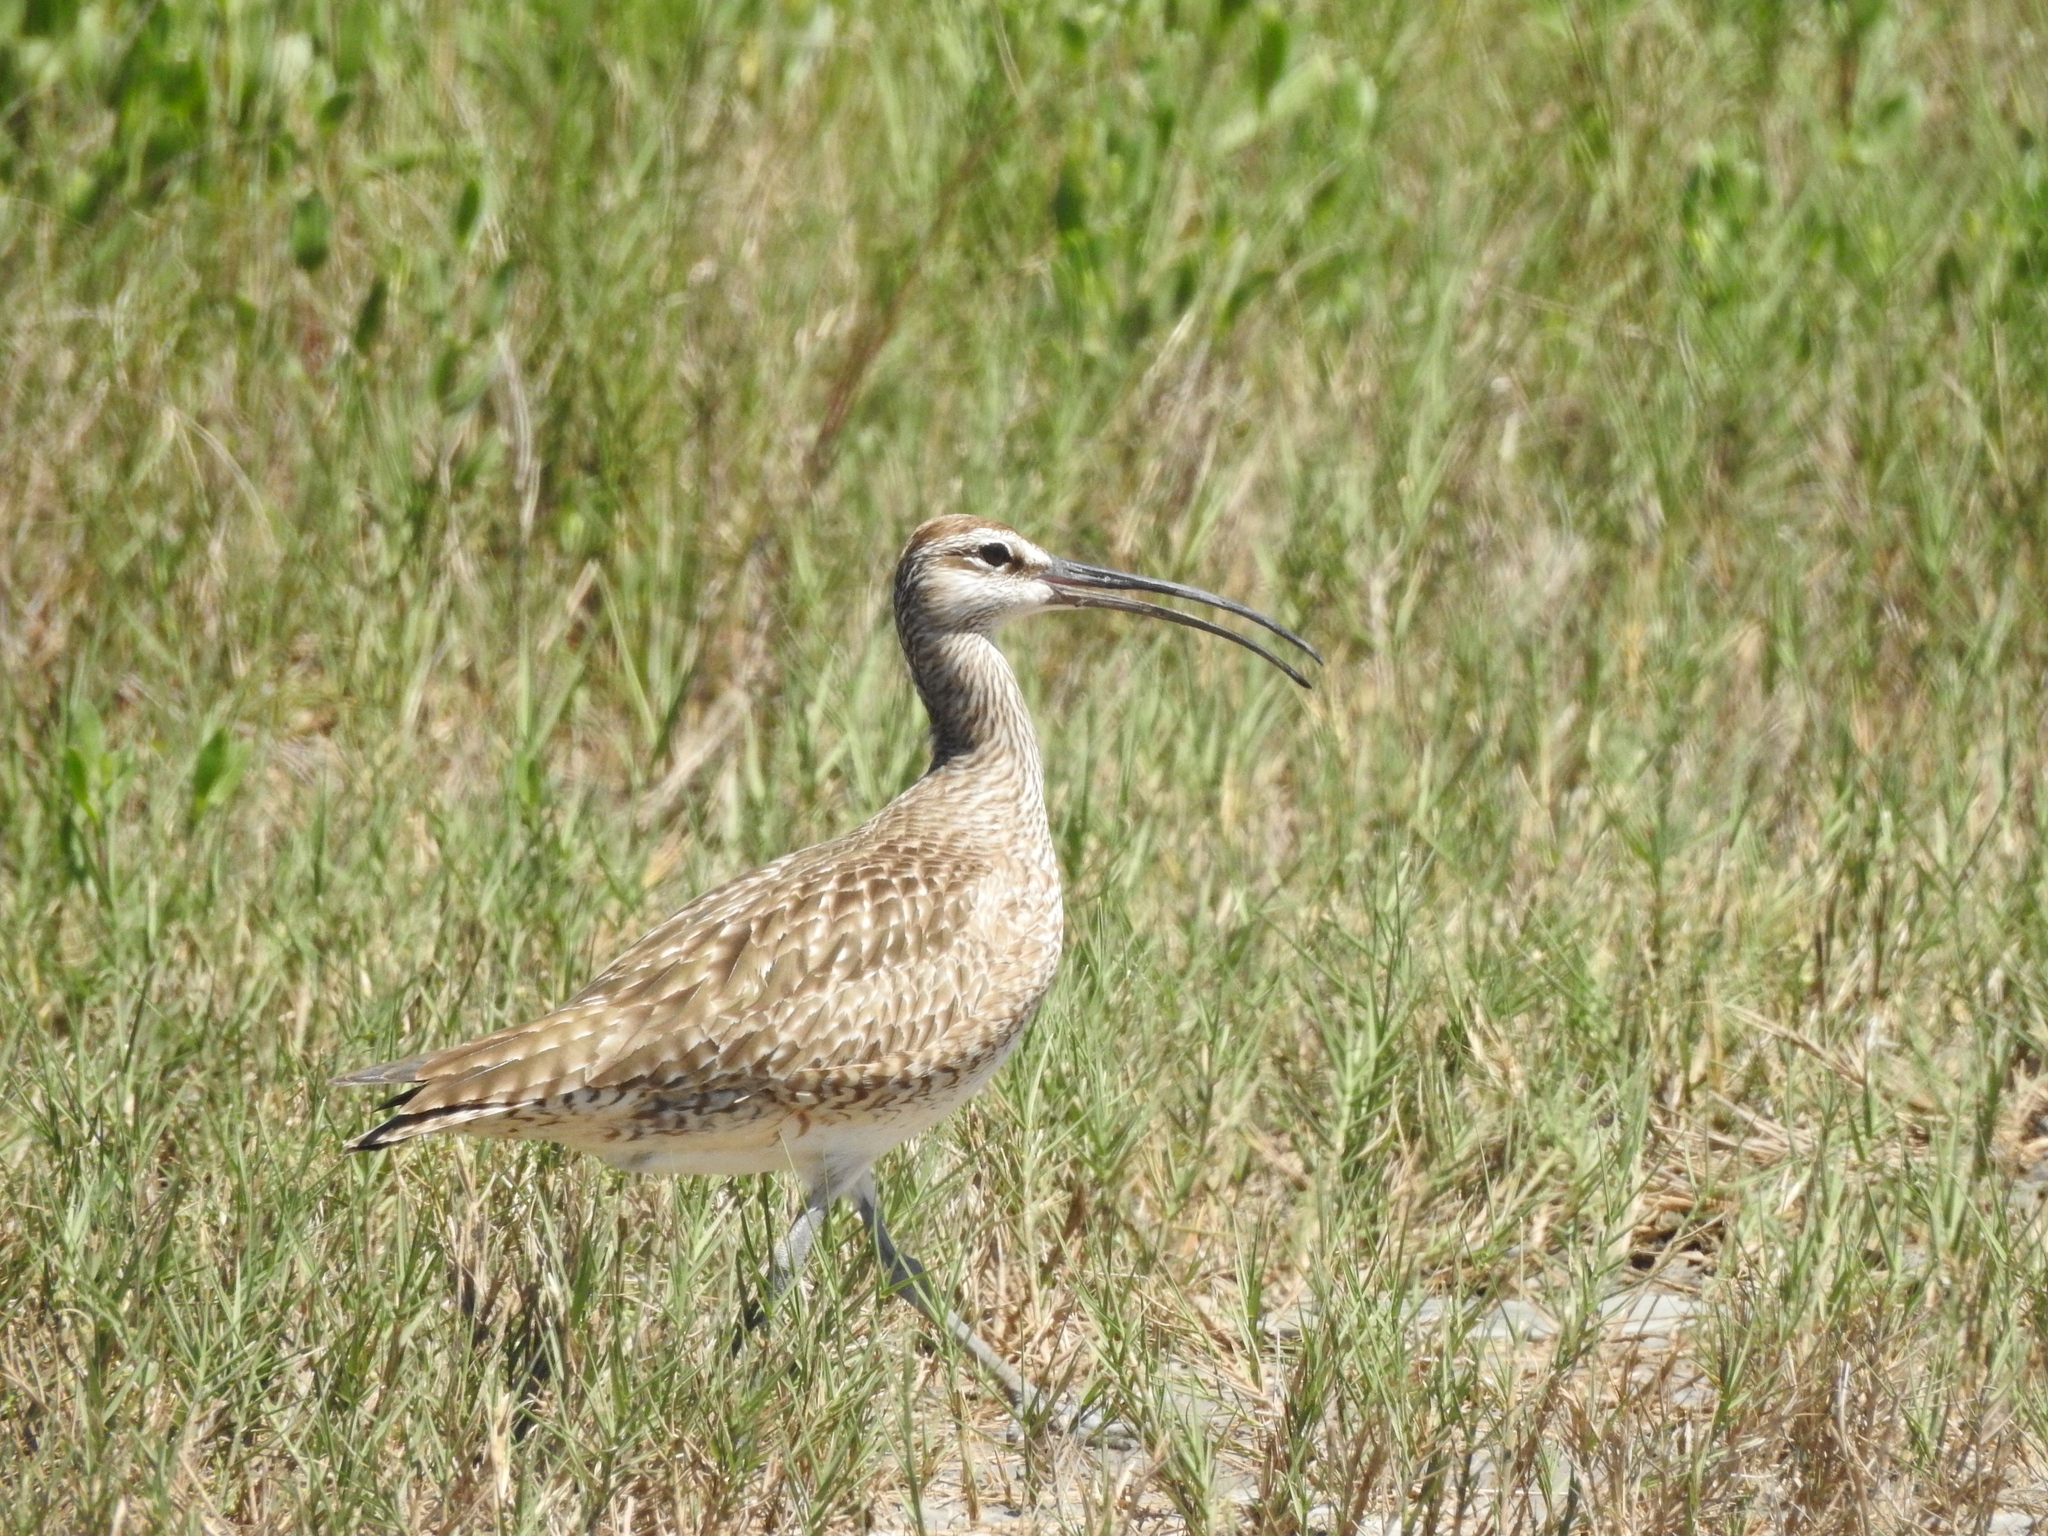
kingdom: Animalia
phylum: Chordata
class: Aves
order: Charadriiformes
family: Scolopacidae
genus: Numenius
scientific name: Numenius phaeopus
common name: Whimbrel
